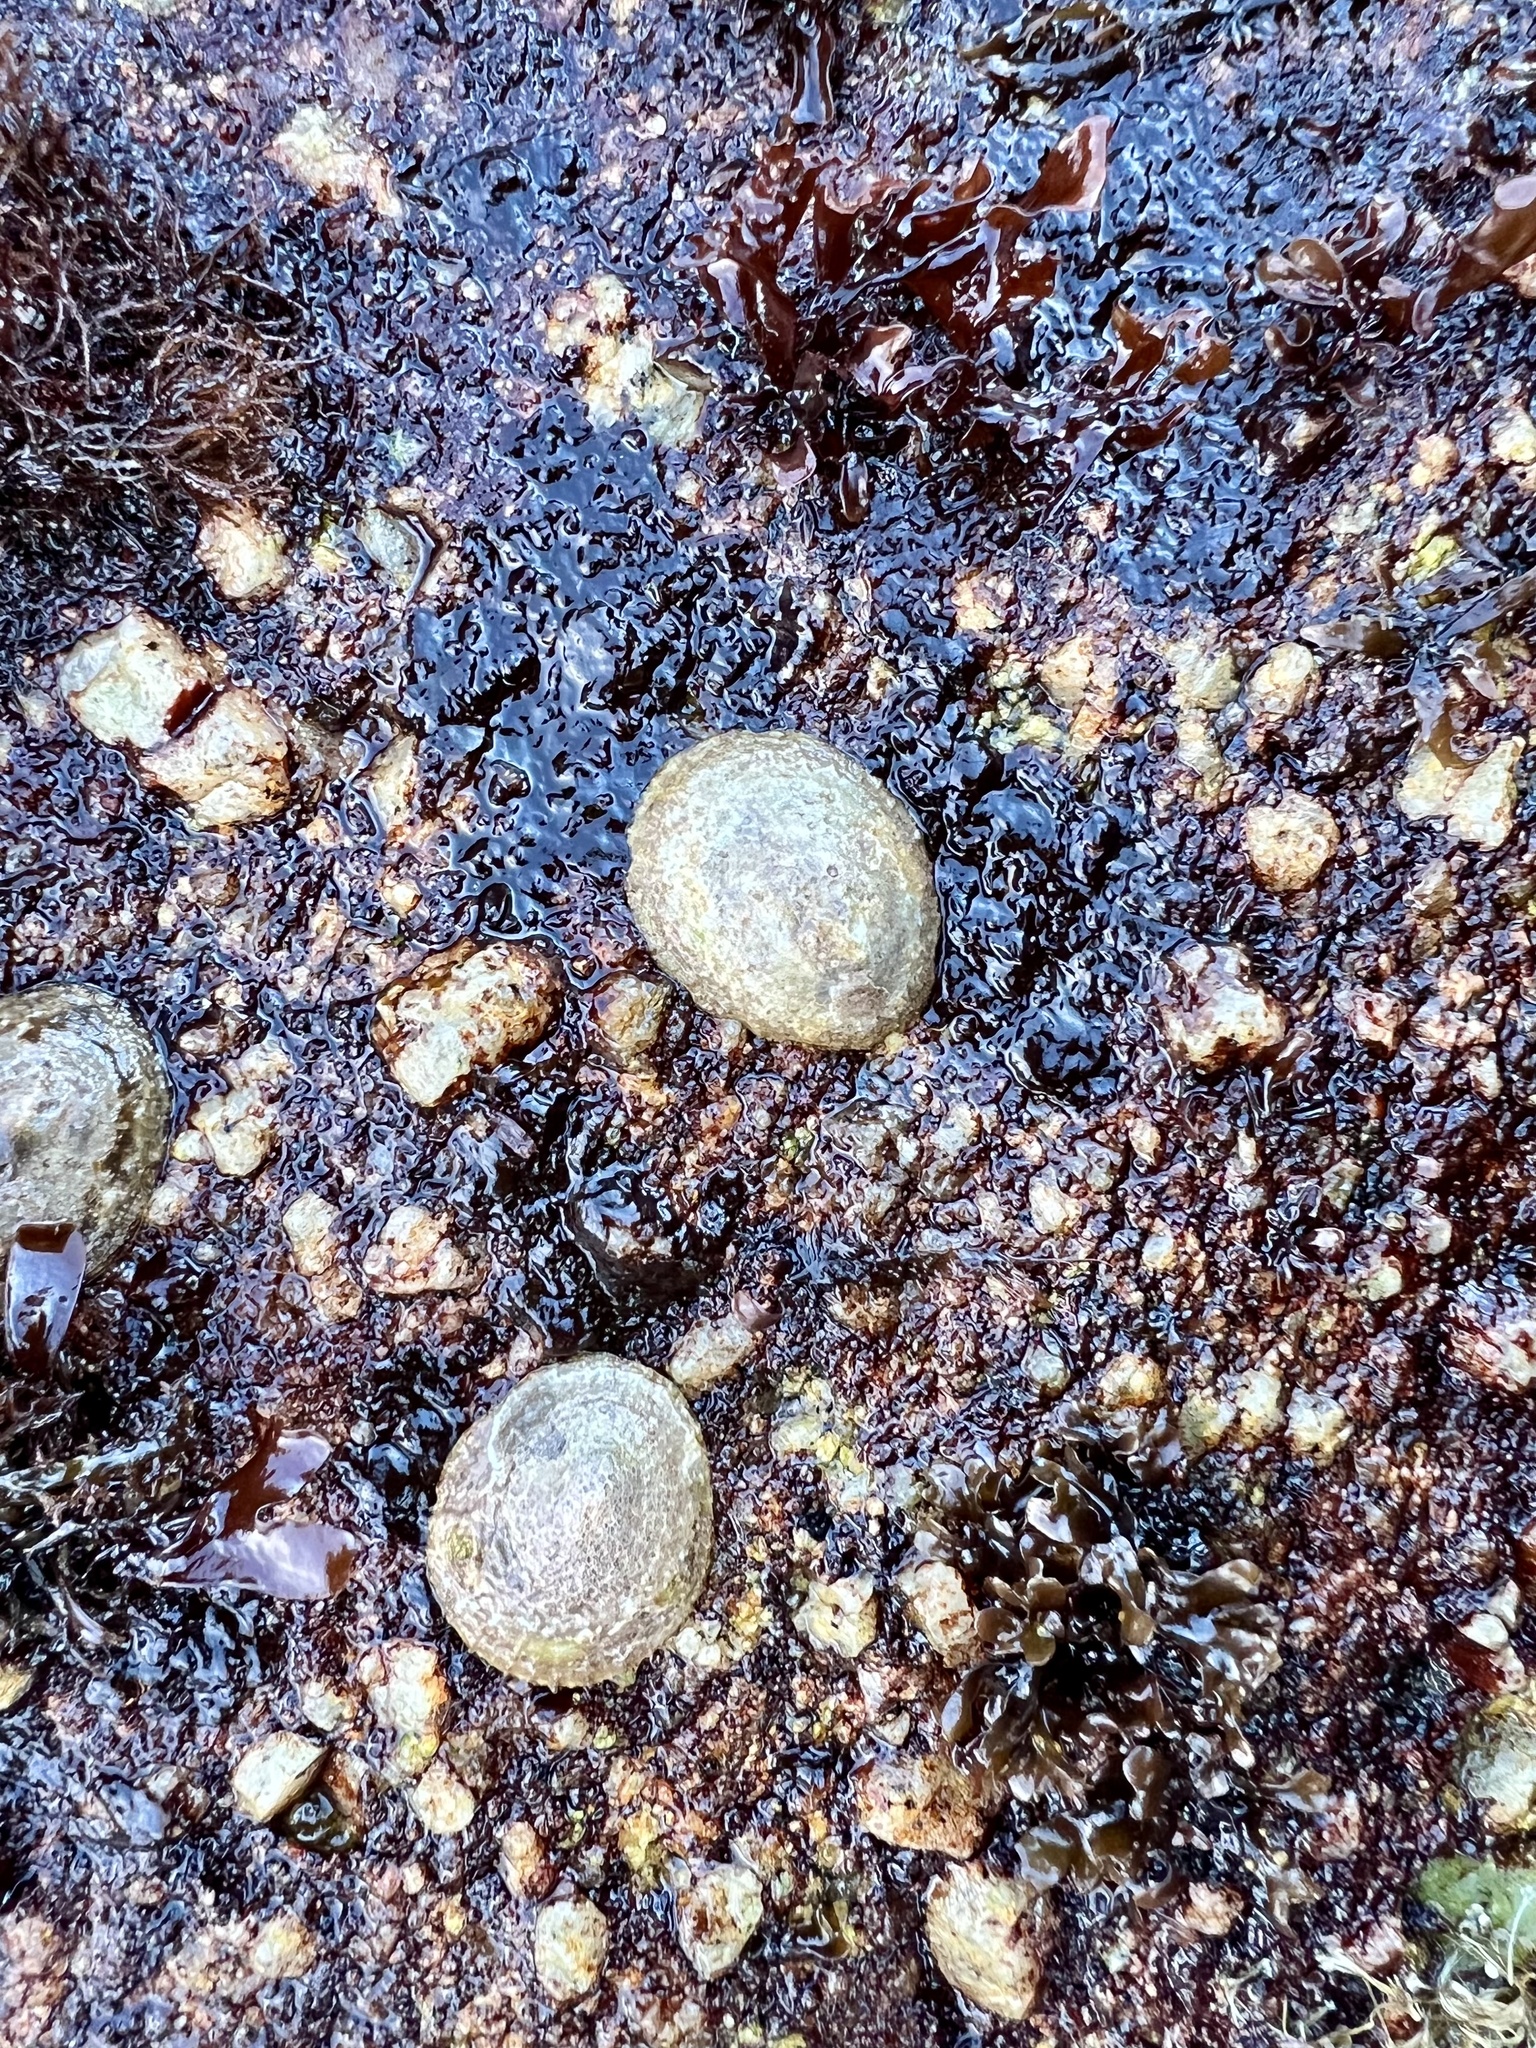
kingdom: Animalia
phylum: Mollusca
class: Gastropoda
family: Lottiidae
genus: Lottia
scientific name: Lottia limatula
